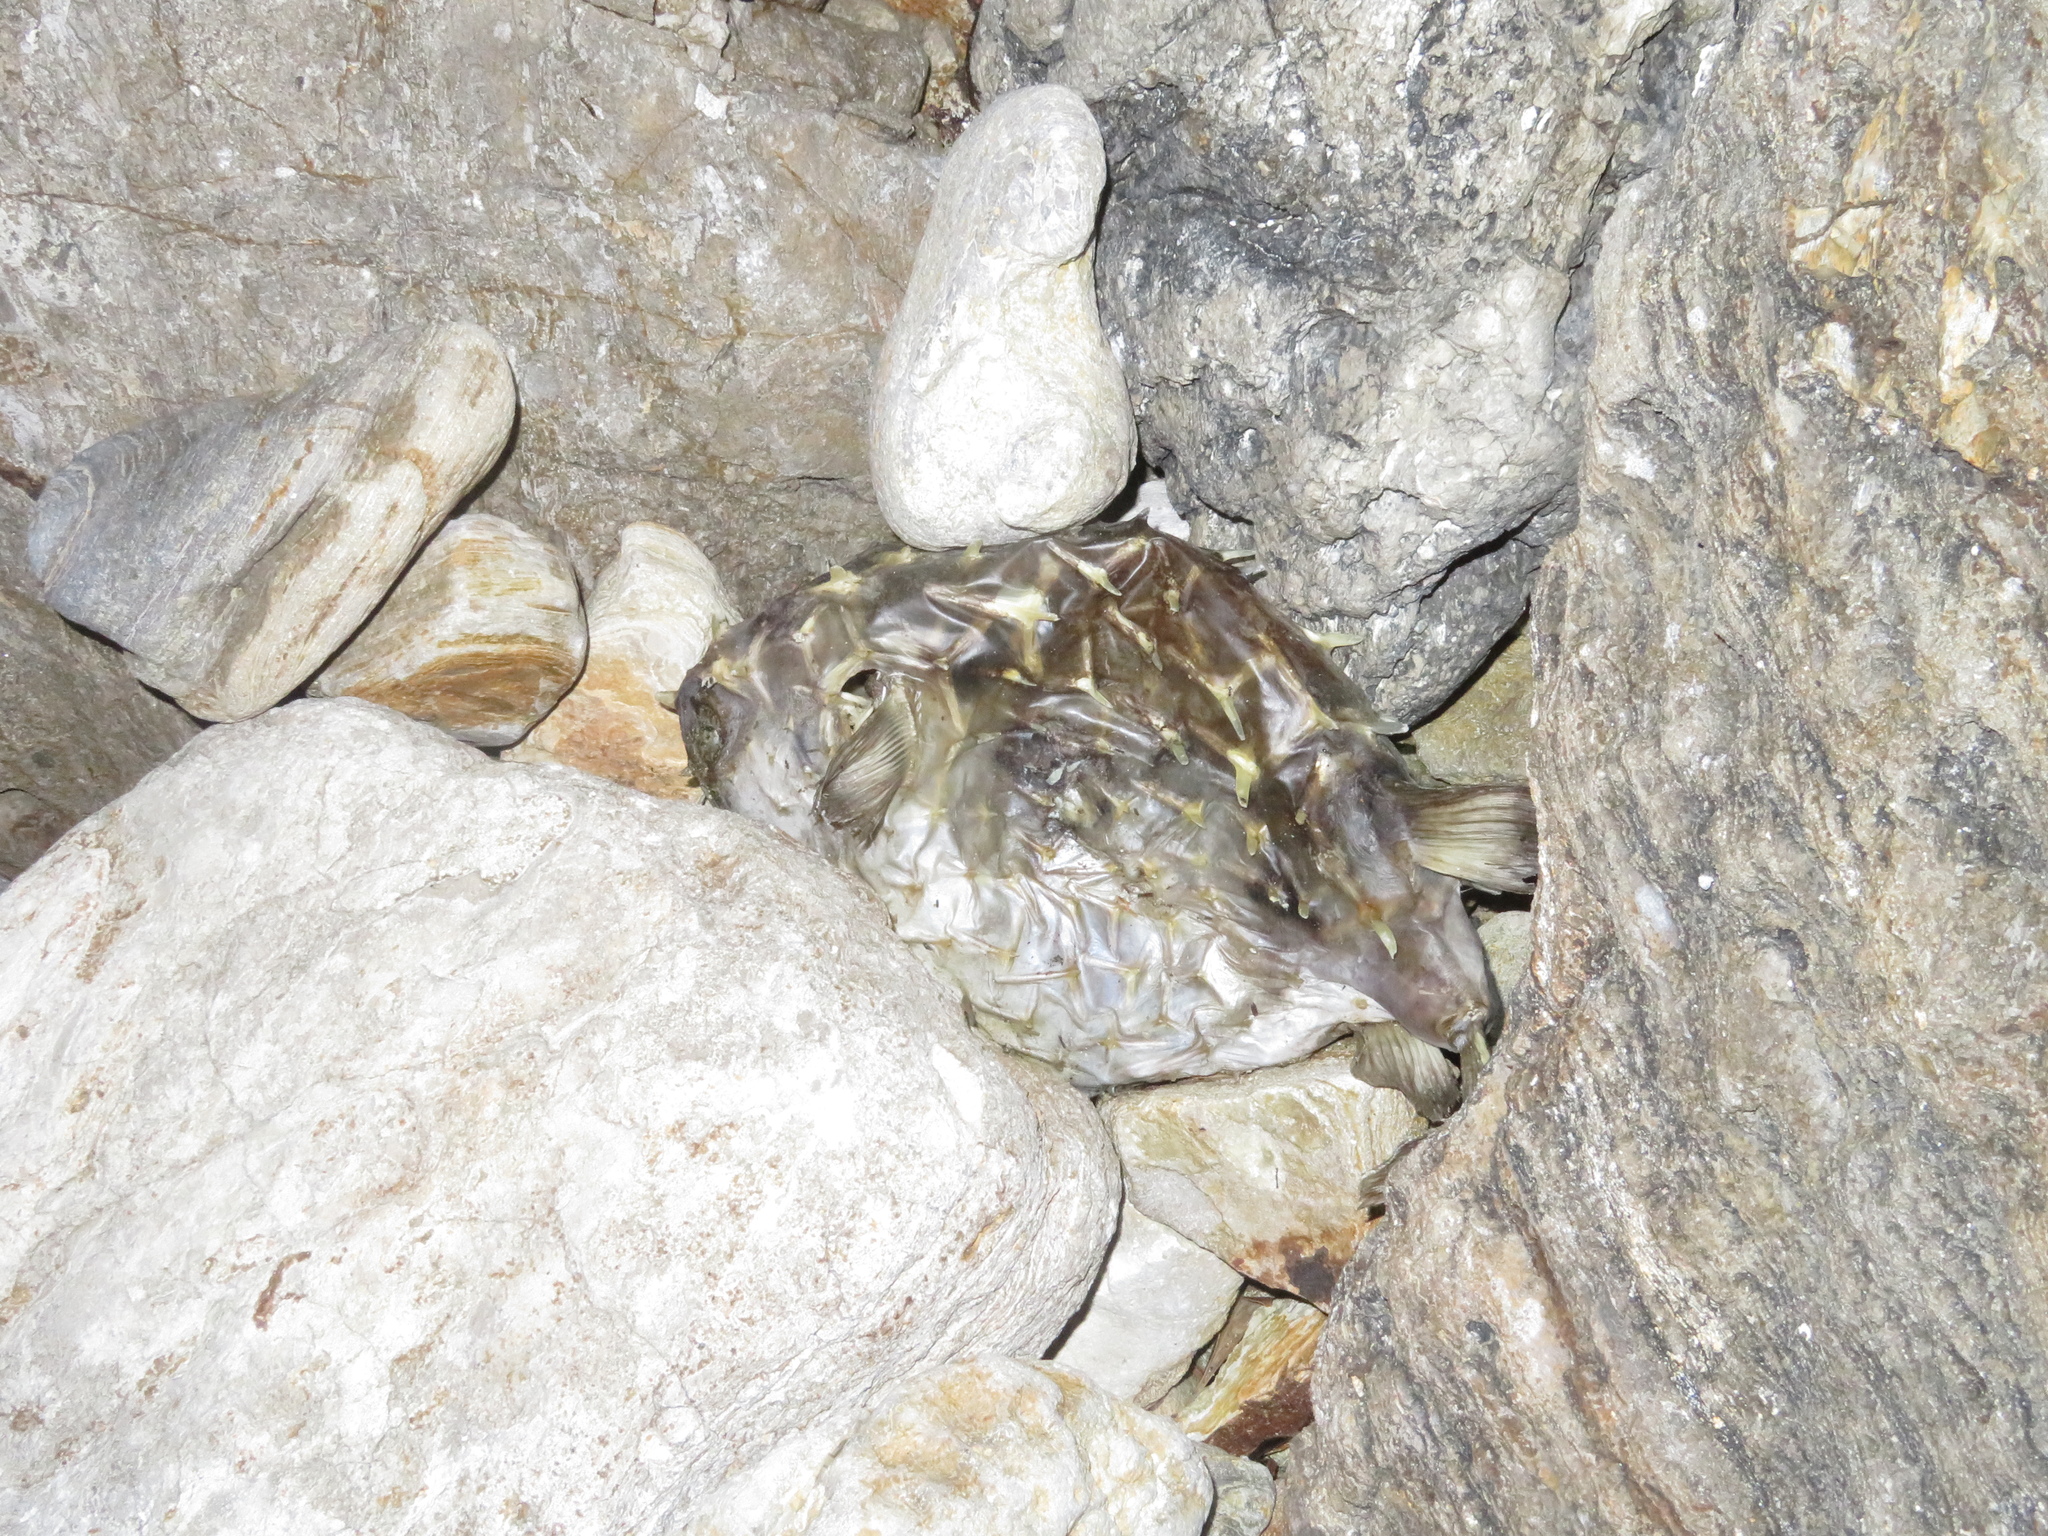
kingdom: Animalia
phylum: Chordata
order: Tetraodontiformes
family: Diodontidae
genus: Allomycterus
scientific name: Allomycterus pilatus
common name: No common name
